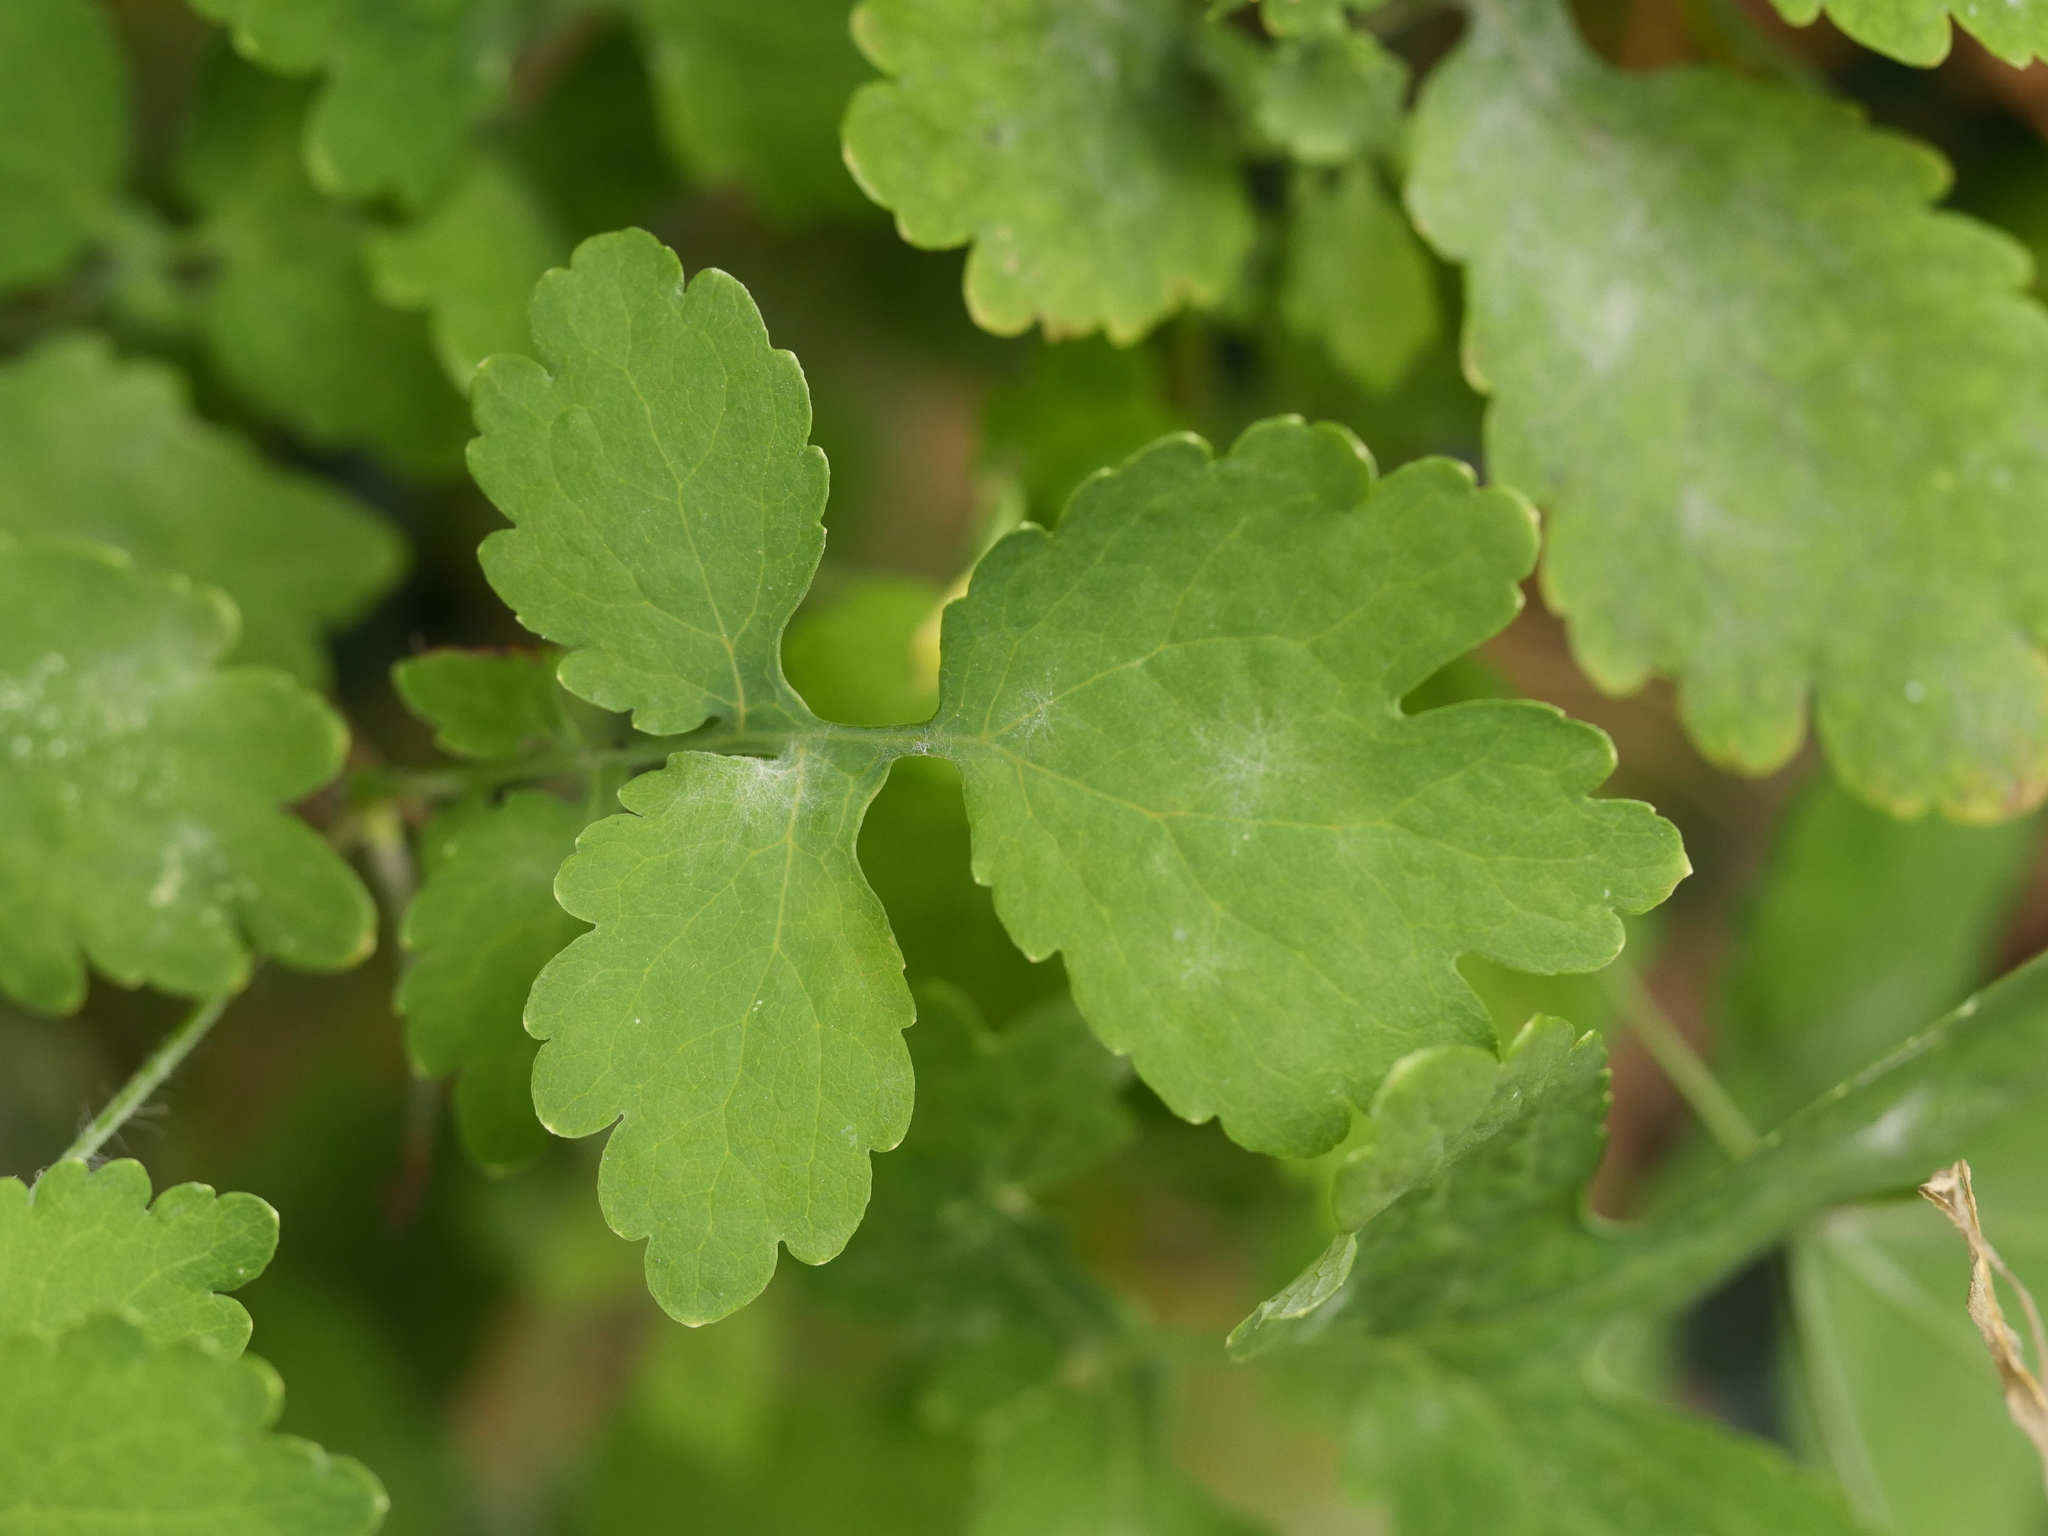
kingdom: Plantae
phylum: Tracheophyta
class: Magnoliopsida
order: Ranunculales
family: Papaveraceae
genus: Chelidonium
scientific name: Chelidonium majus
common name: Greater celandine
